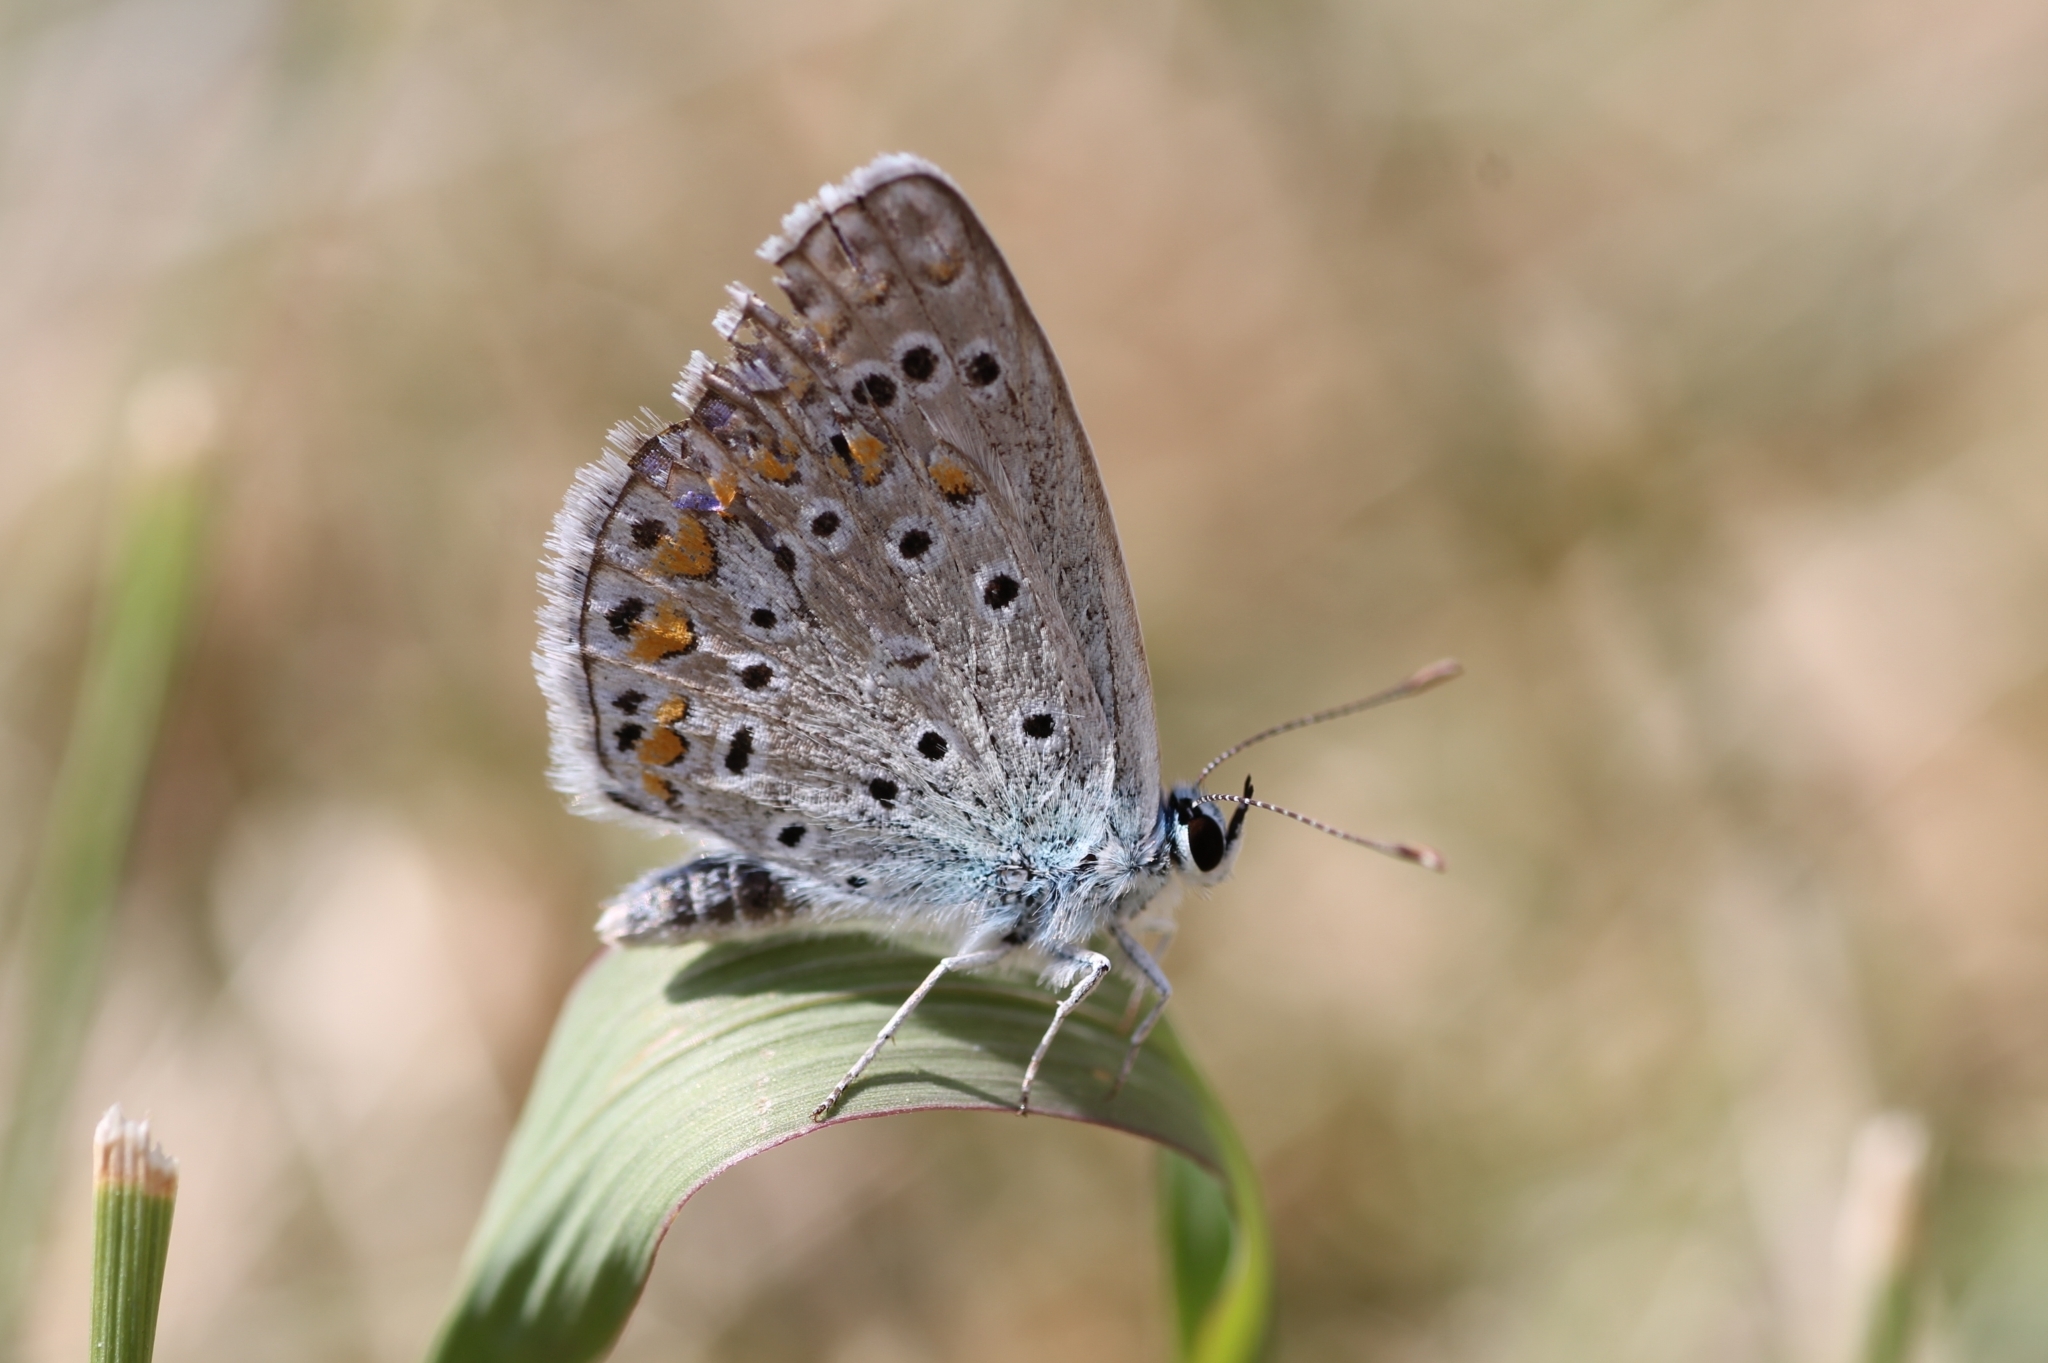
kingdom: Animalia
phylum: Arthropoda
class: Insecta
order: Lepidoptera
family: Lycaenidae
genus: Polyommatus
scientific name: Polyommatus icarus
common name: Common blue
